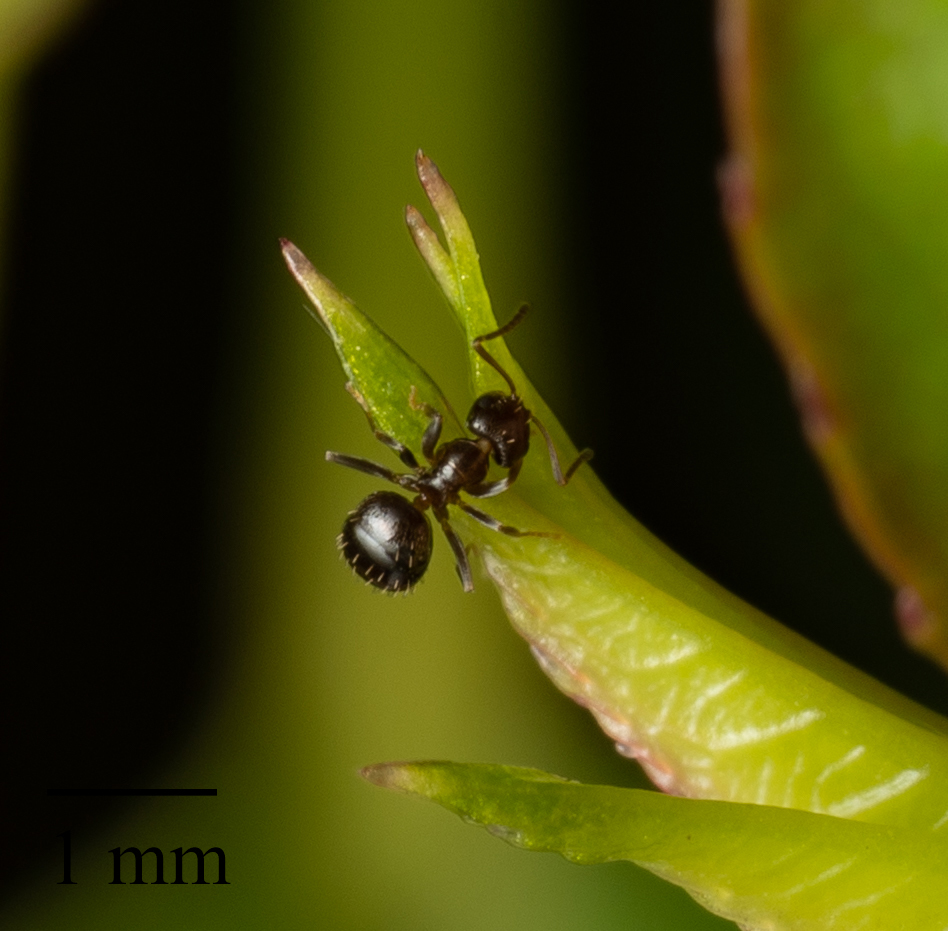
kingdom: Animalia
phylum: Arthropoda
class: Insecta
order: Hymenoptera
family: Formicidae
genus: Brachymyrmex
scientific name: Brachymyrmex patagonicus
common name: Dark rover ant
